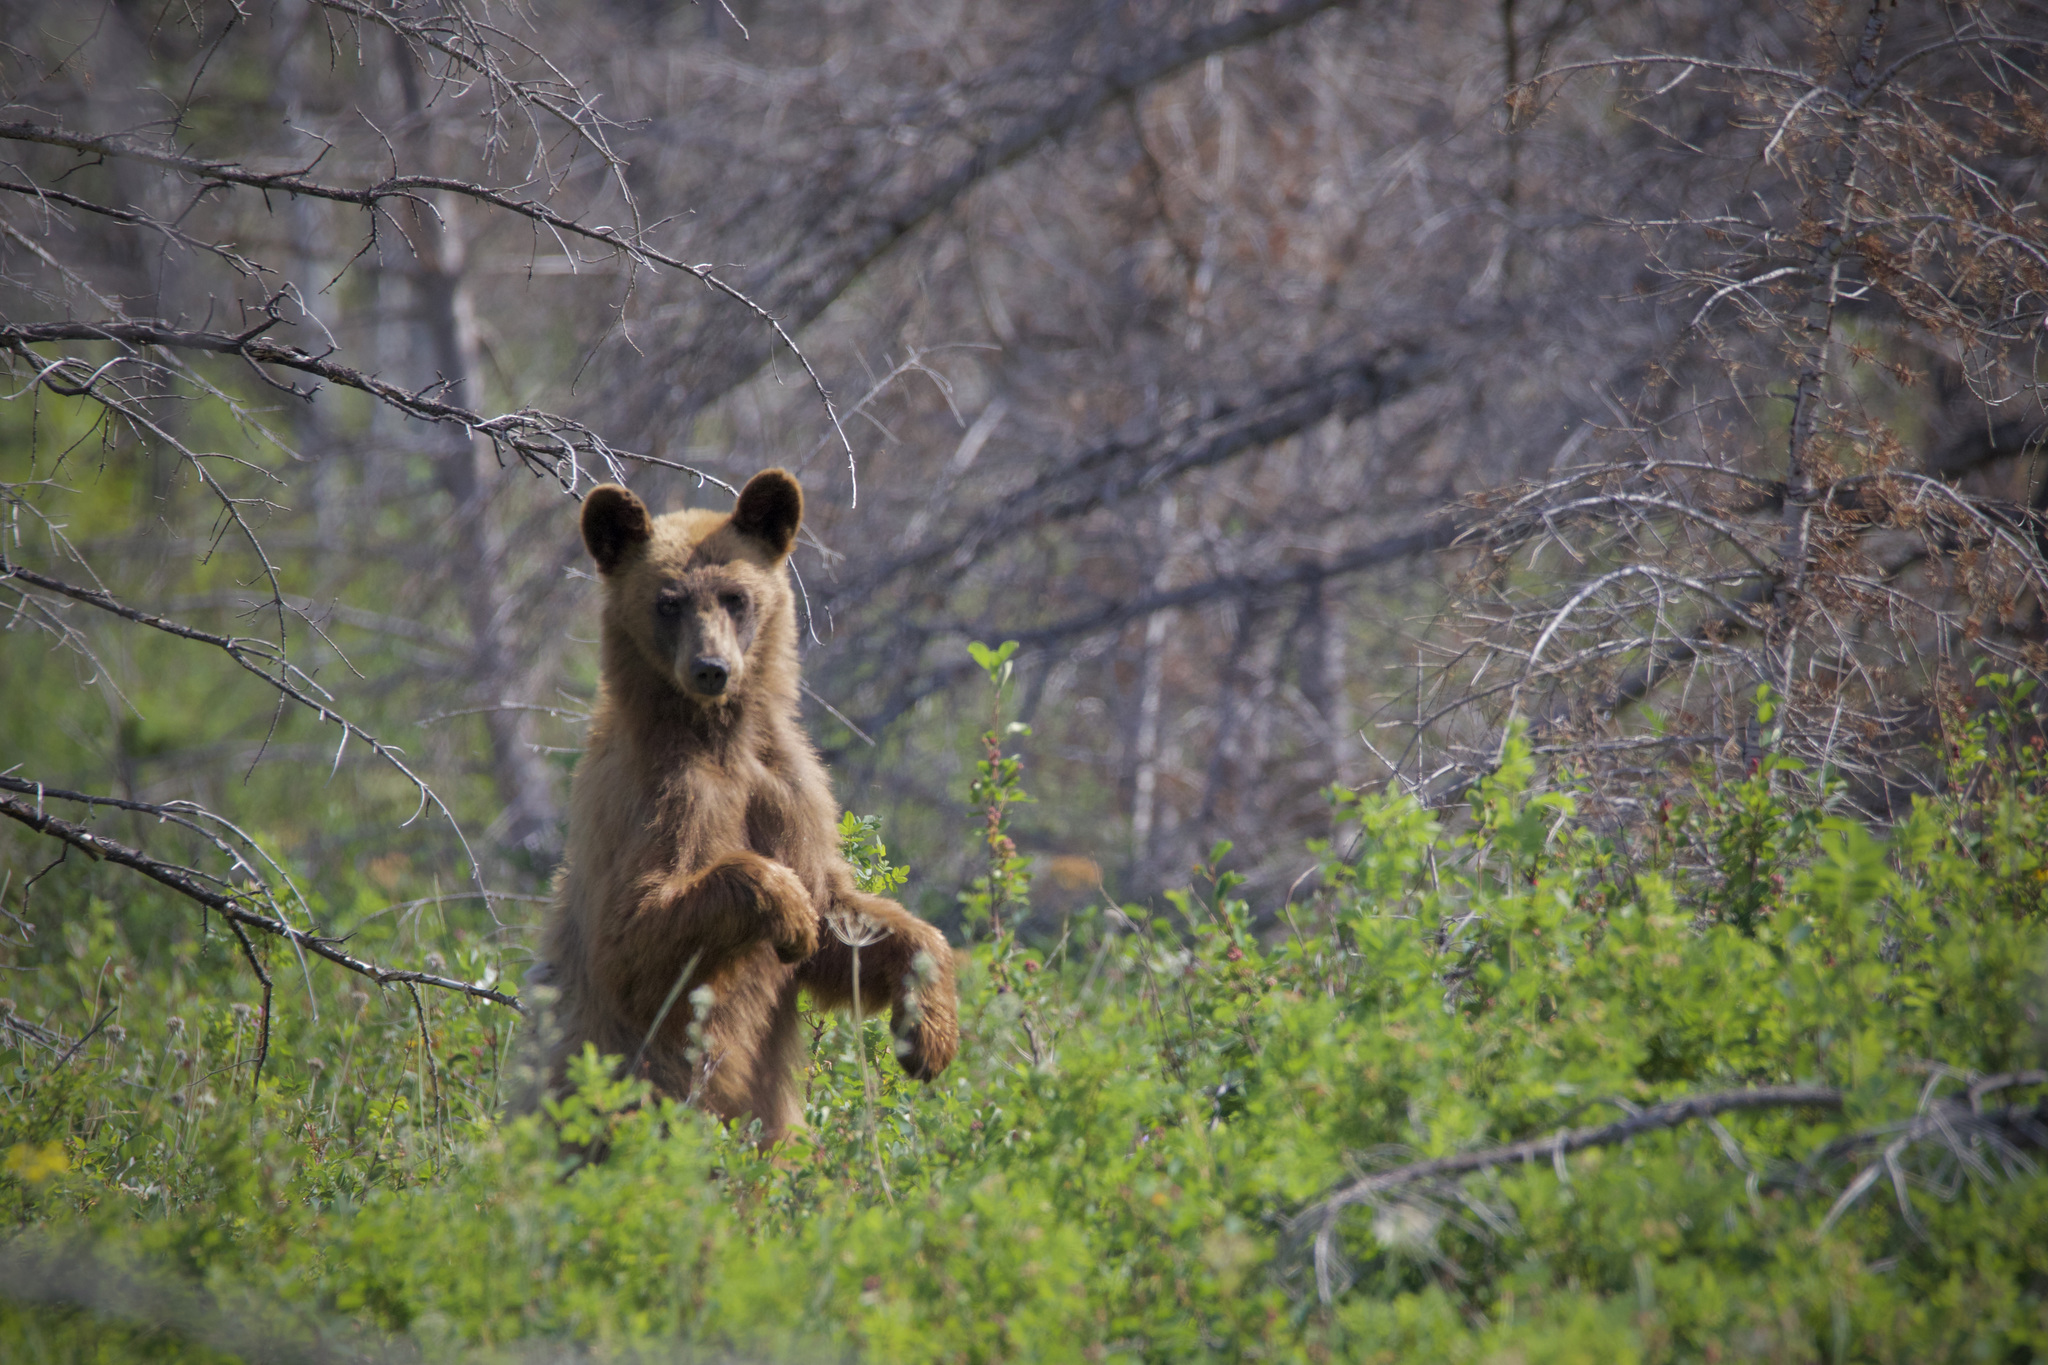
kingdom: Animalia
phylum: Chordata
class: Mammalia
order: Carnivora
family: Ursidae
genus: Ursus
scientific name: Ursus americanus
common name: American black bear
